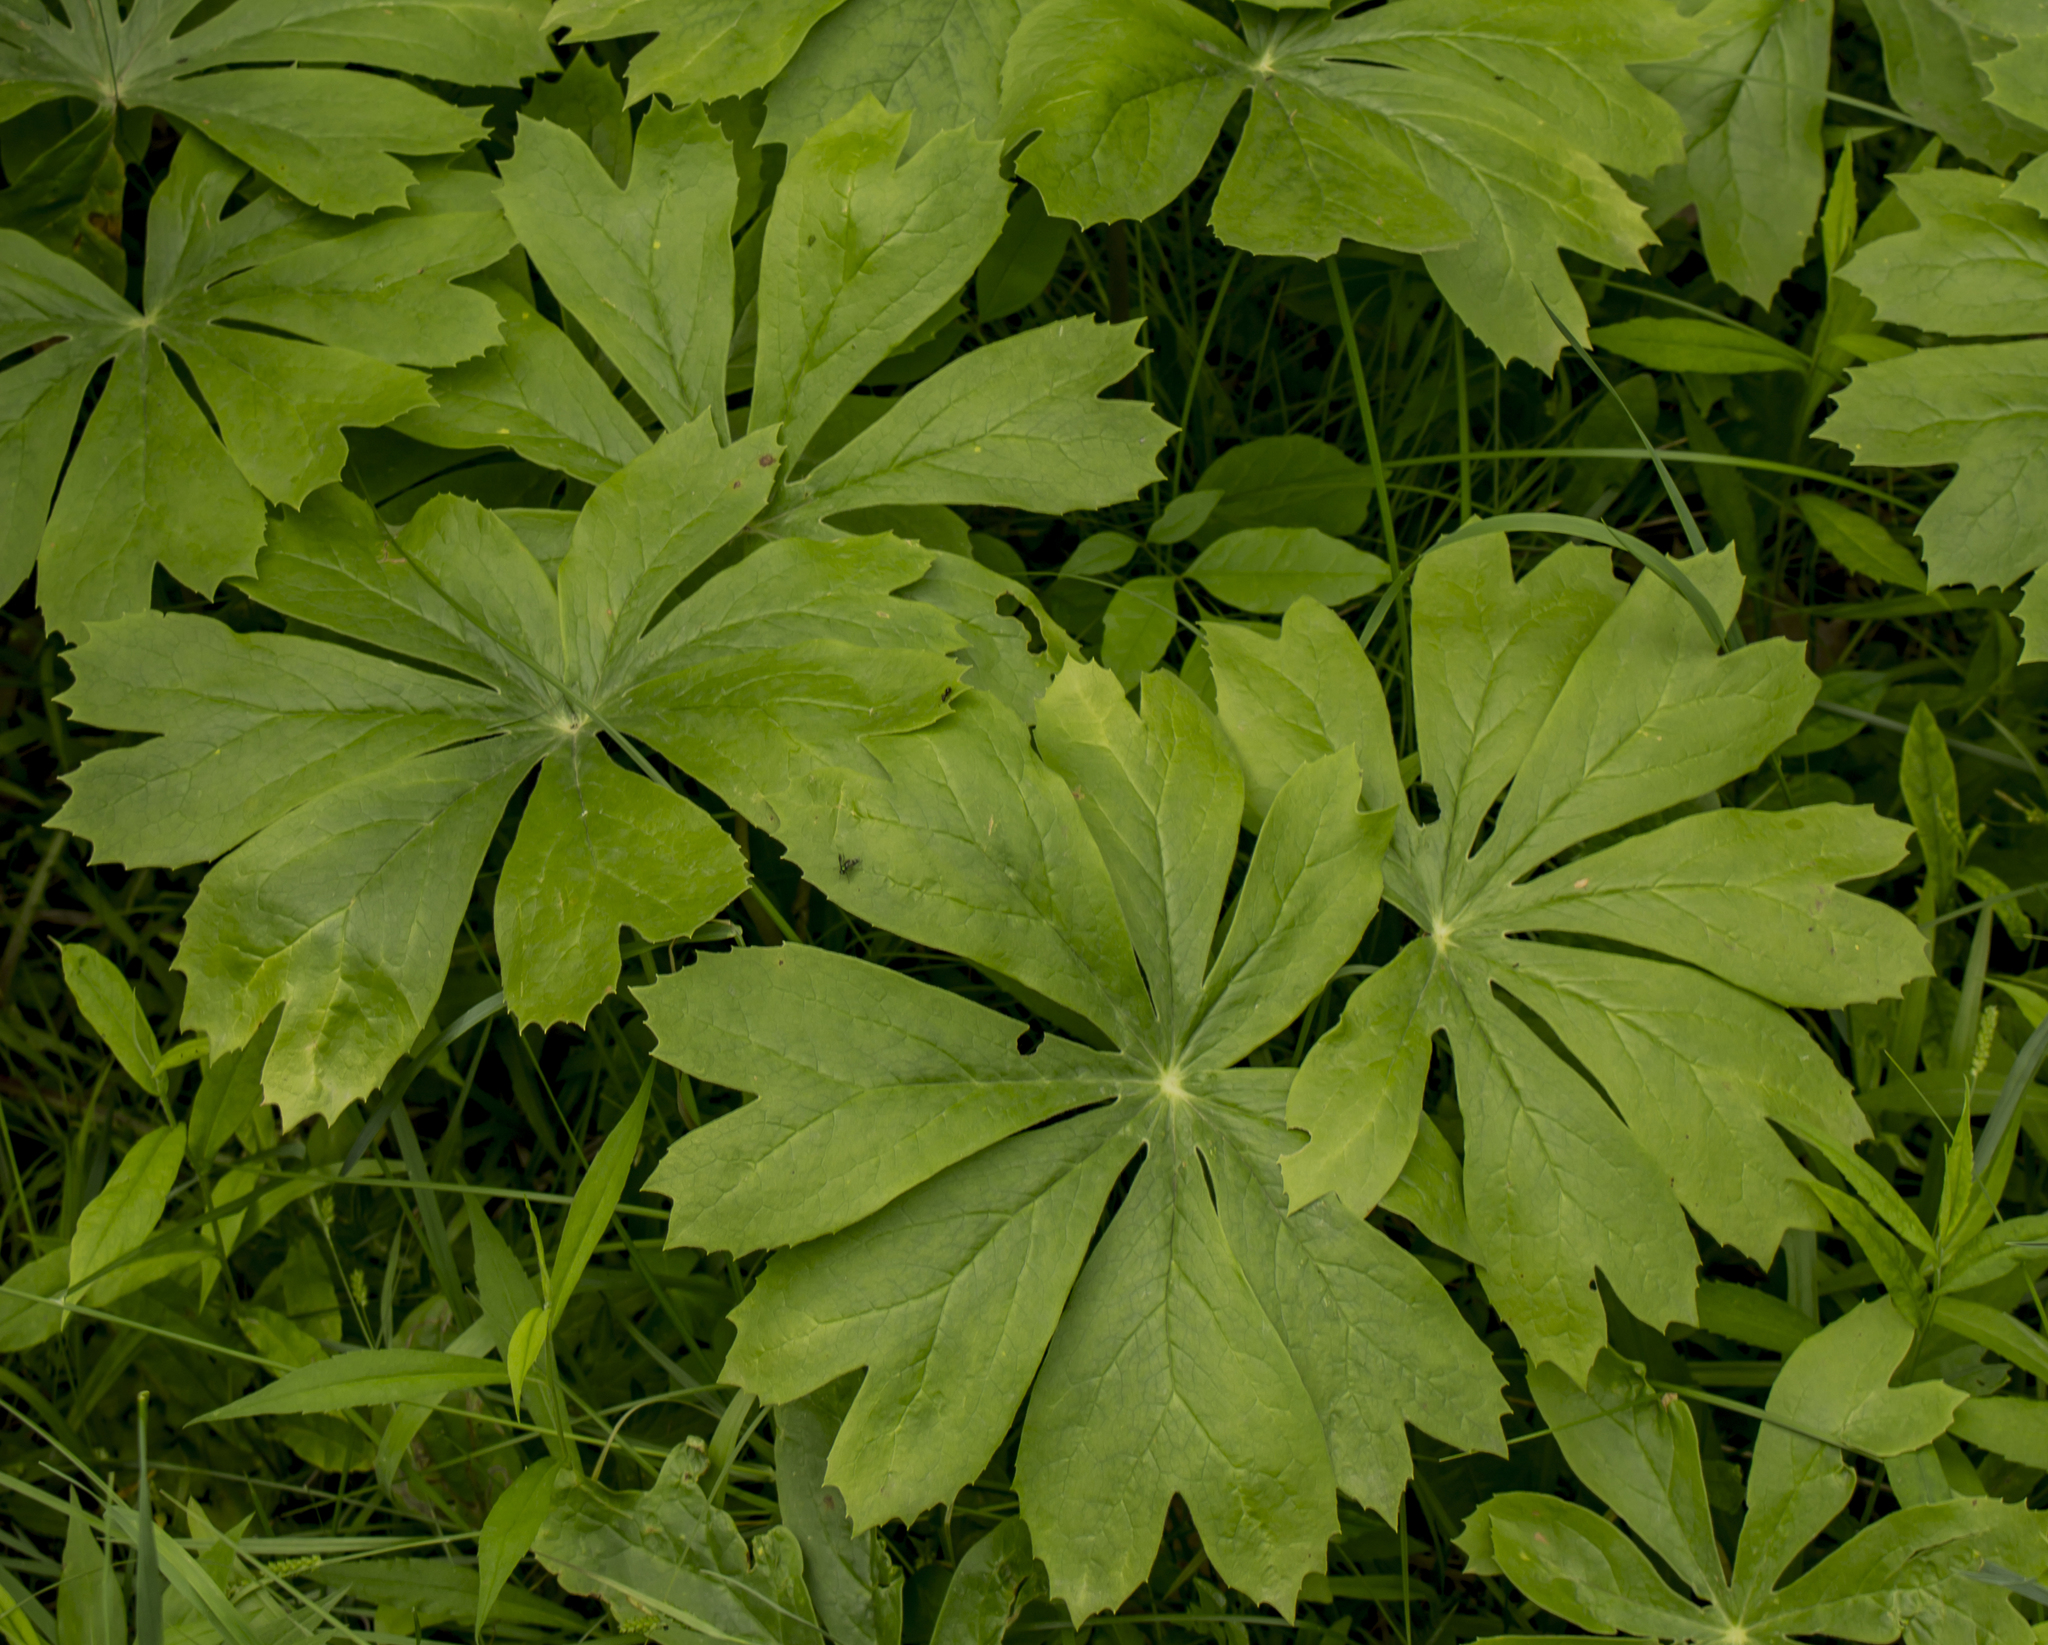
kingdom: Plantae
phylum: Tracheophyta
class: Magnoliopsida
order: Ranunculales
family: Berberidaceae
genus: Podophyllum
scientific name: Podophyllum peltatum
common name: Wild mandrake
